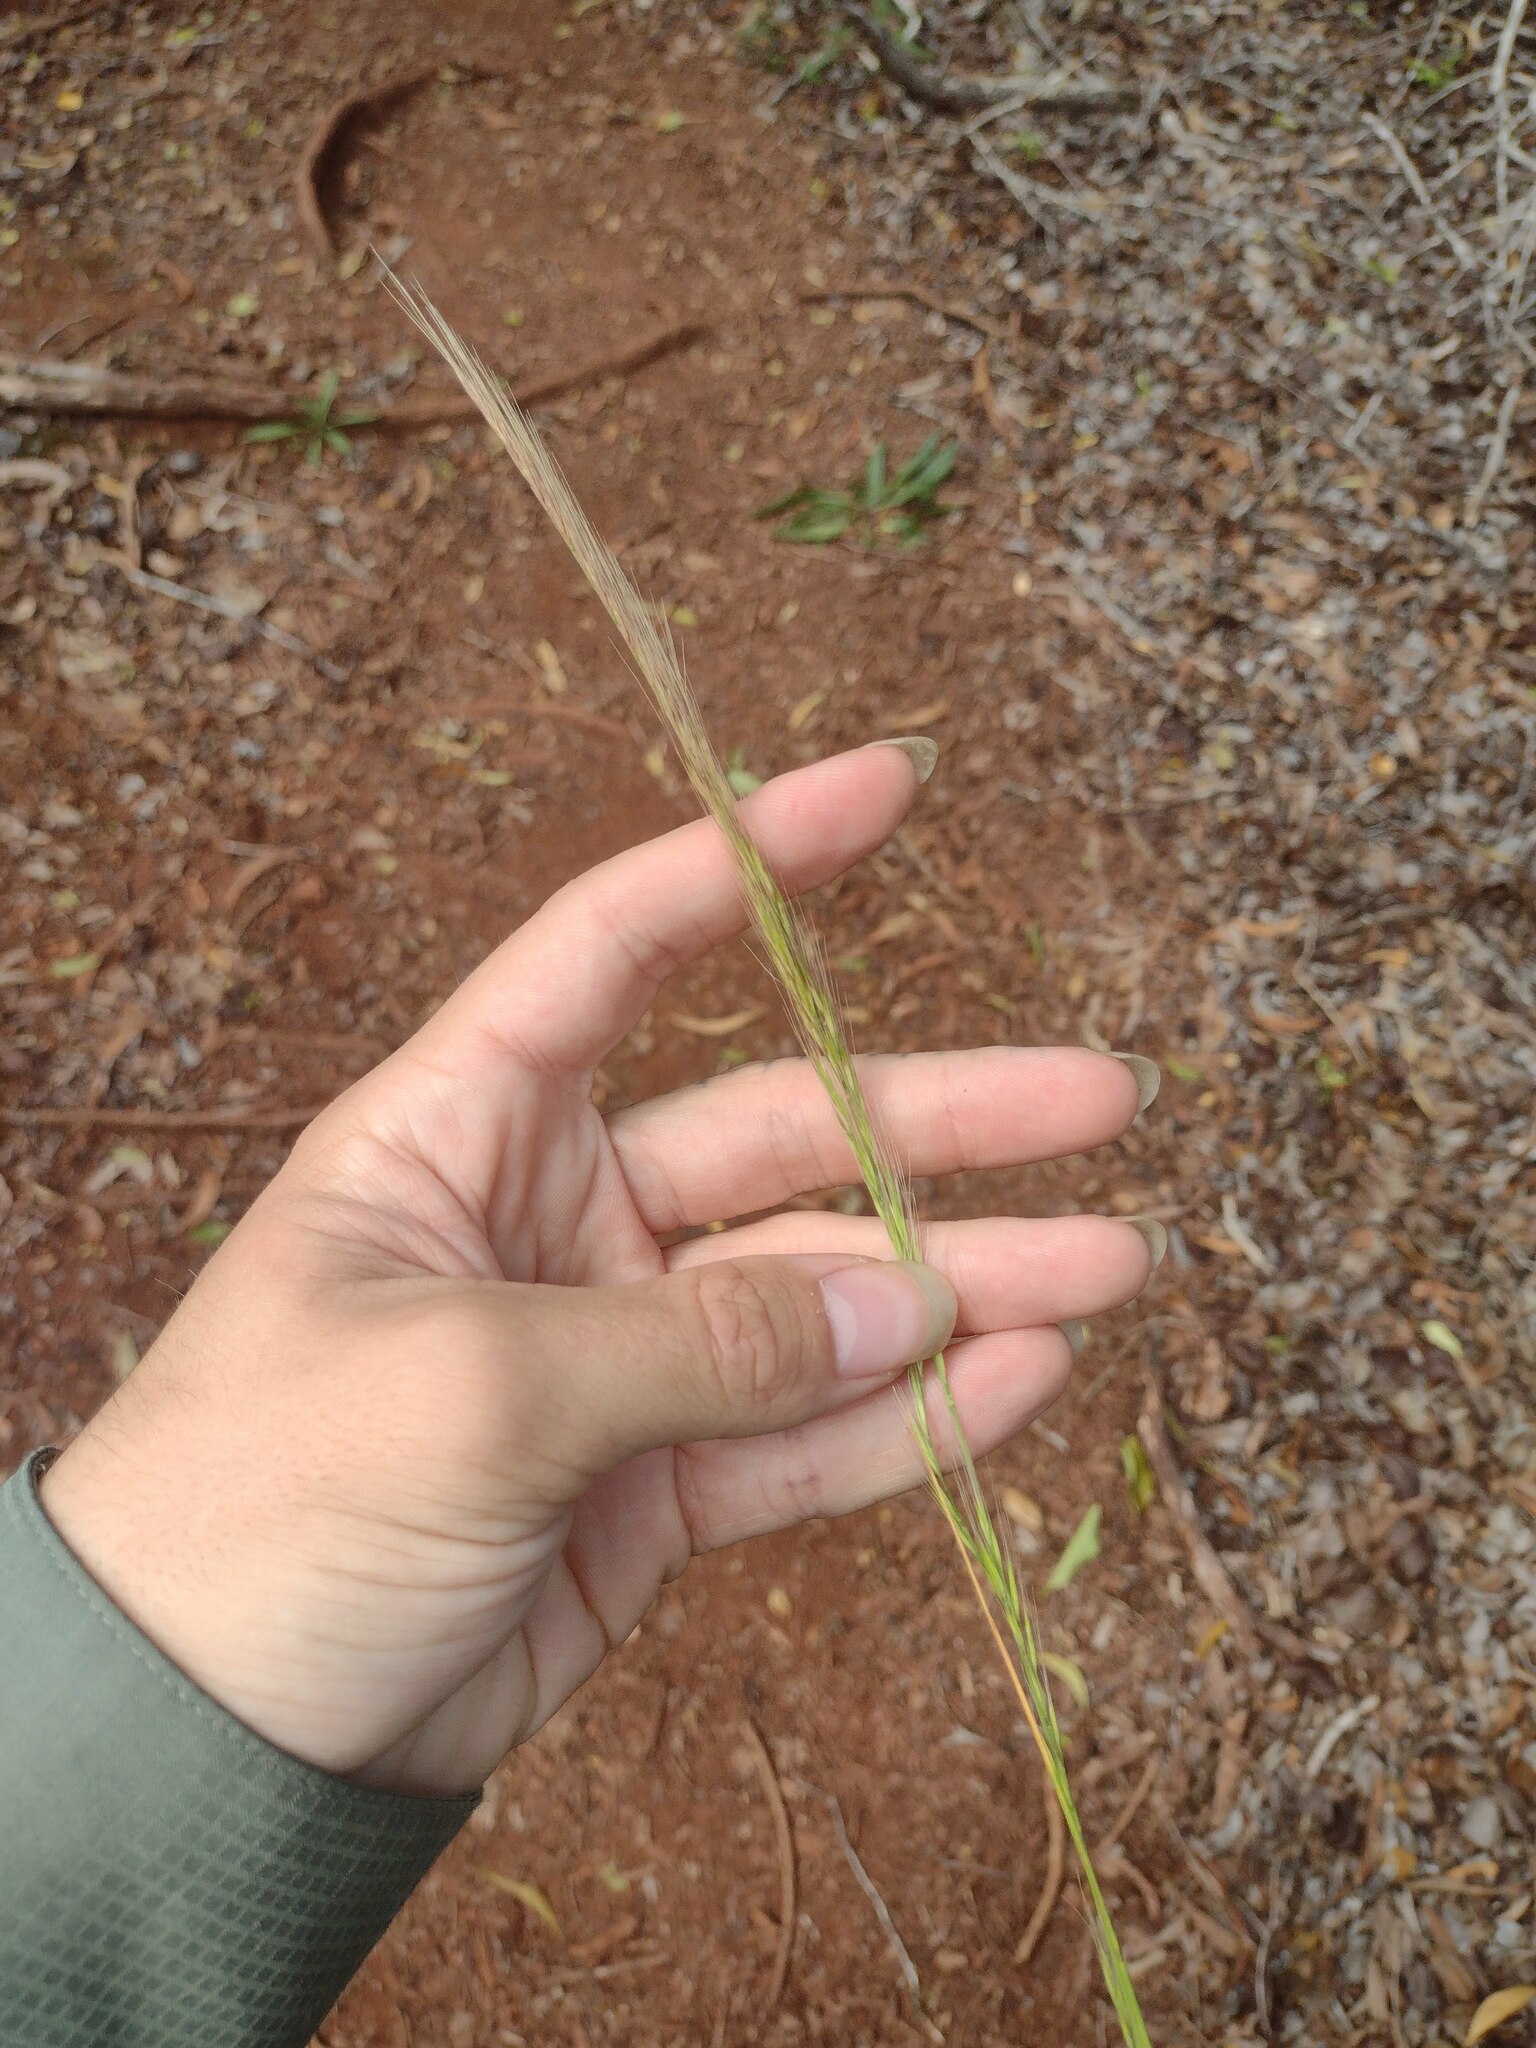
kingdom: Plantae
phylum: Tracheophyta
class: Liliopsida
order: Poales
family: Poaceae
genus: Festuca
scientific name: Festuca myuros
